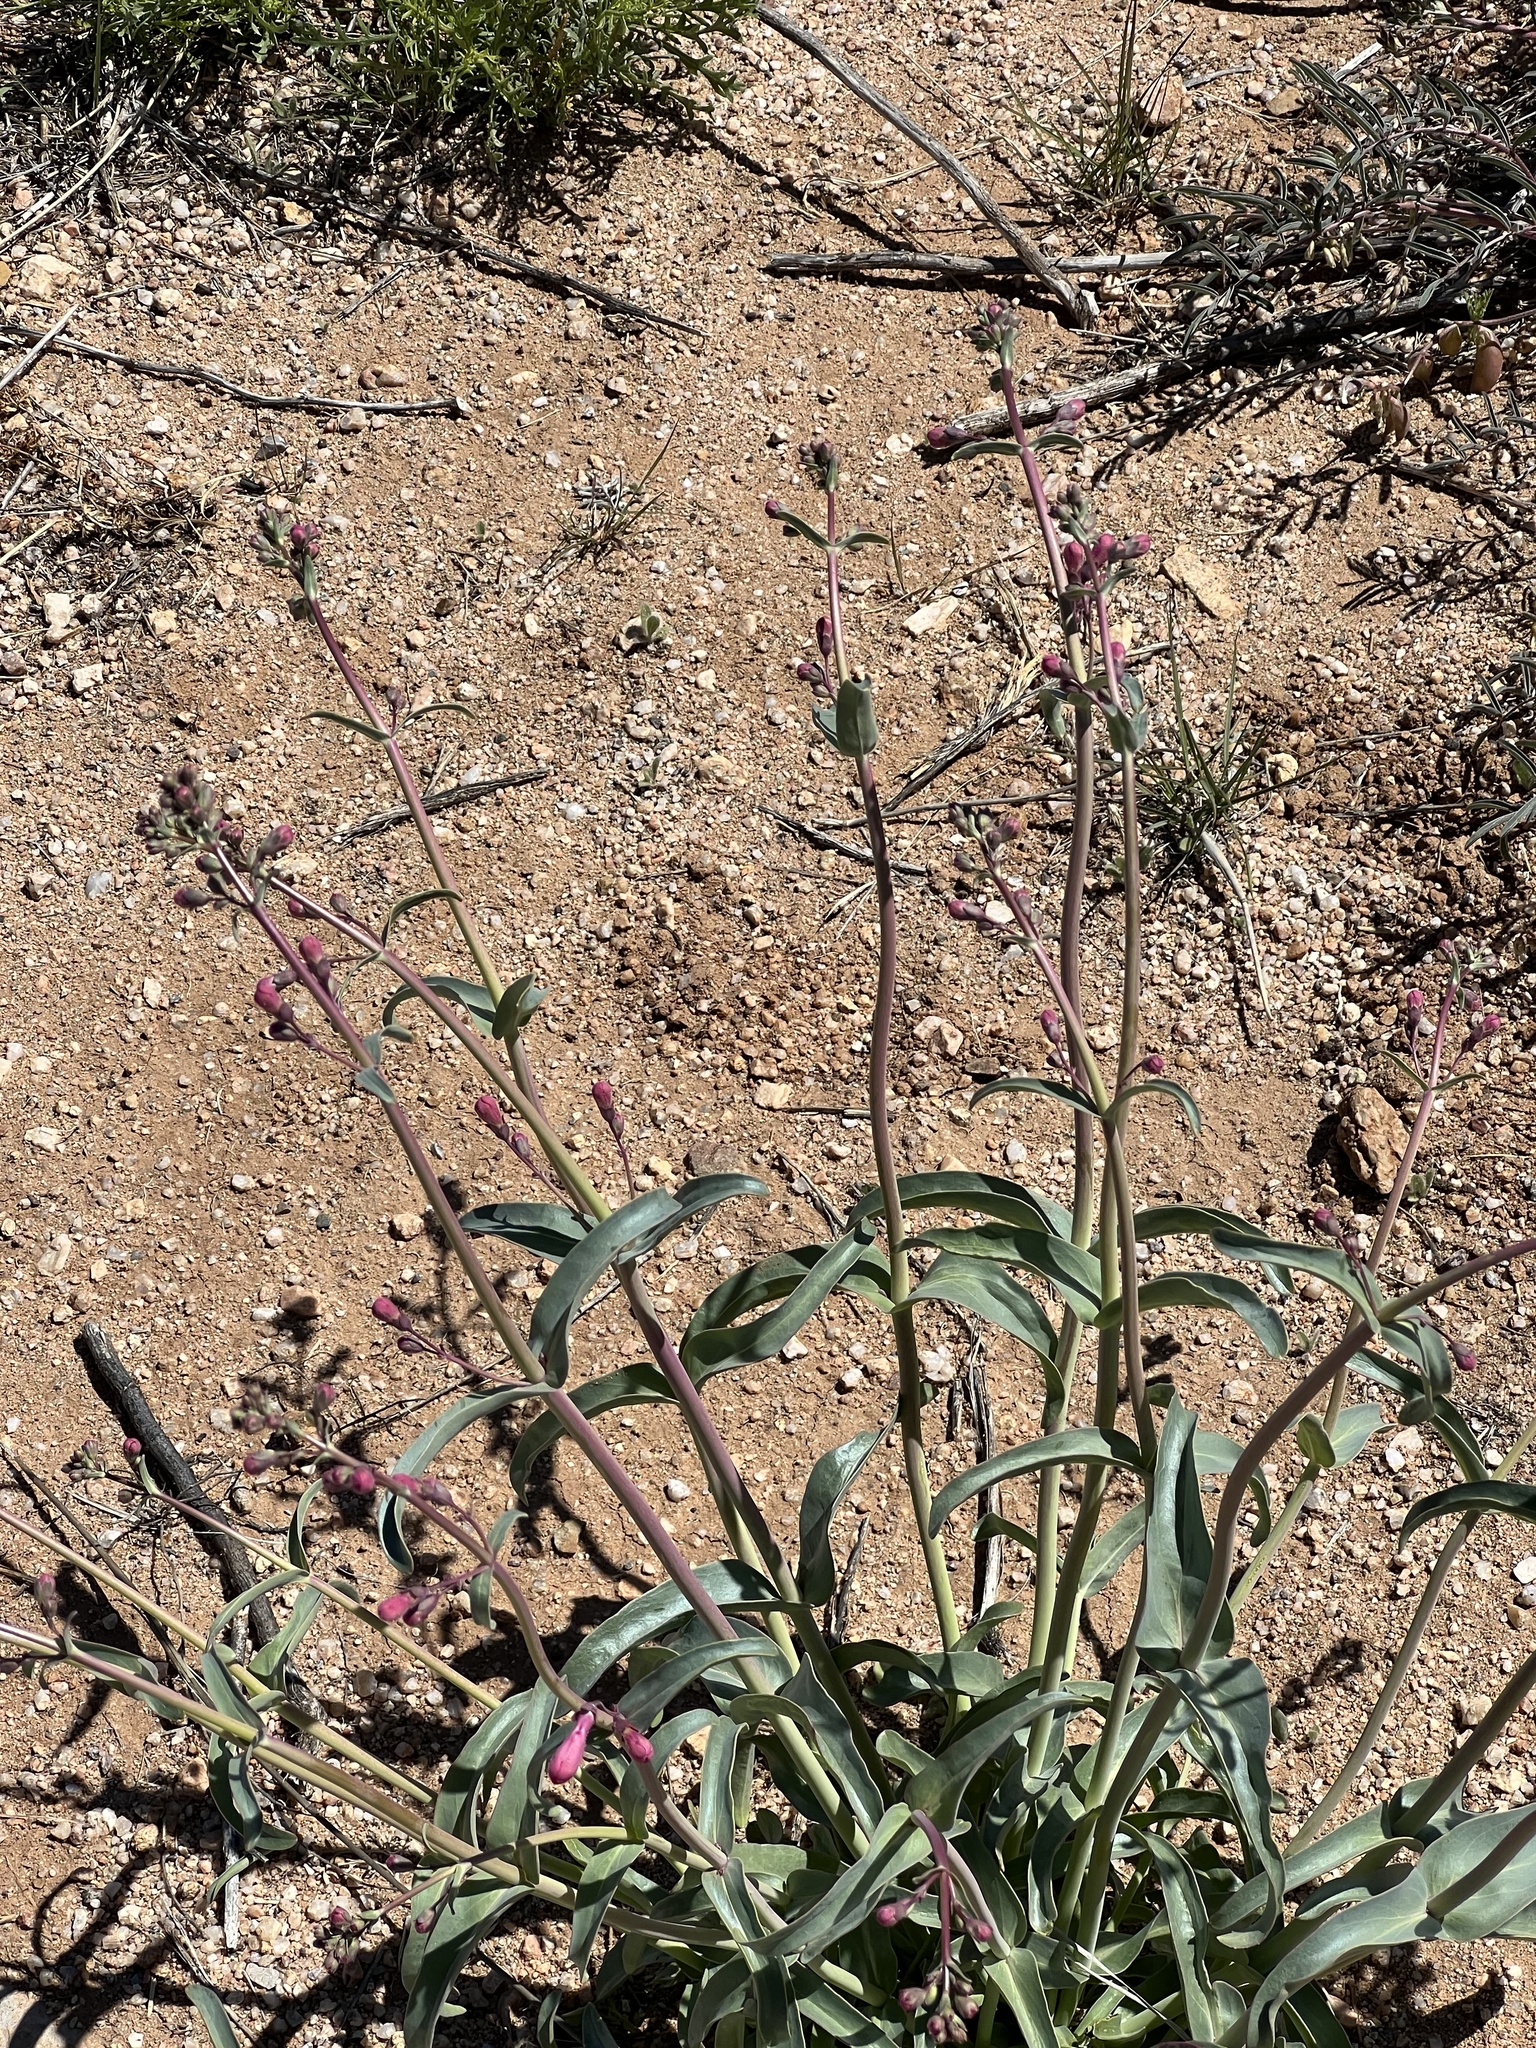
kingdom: Plantae
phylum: Tracheophyta
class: Magnoliopsida
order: Lamiales
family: Plantaginaceae
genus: Penstemon
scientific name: Penstemon parryi
